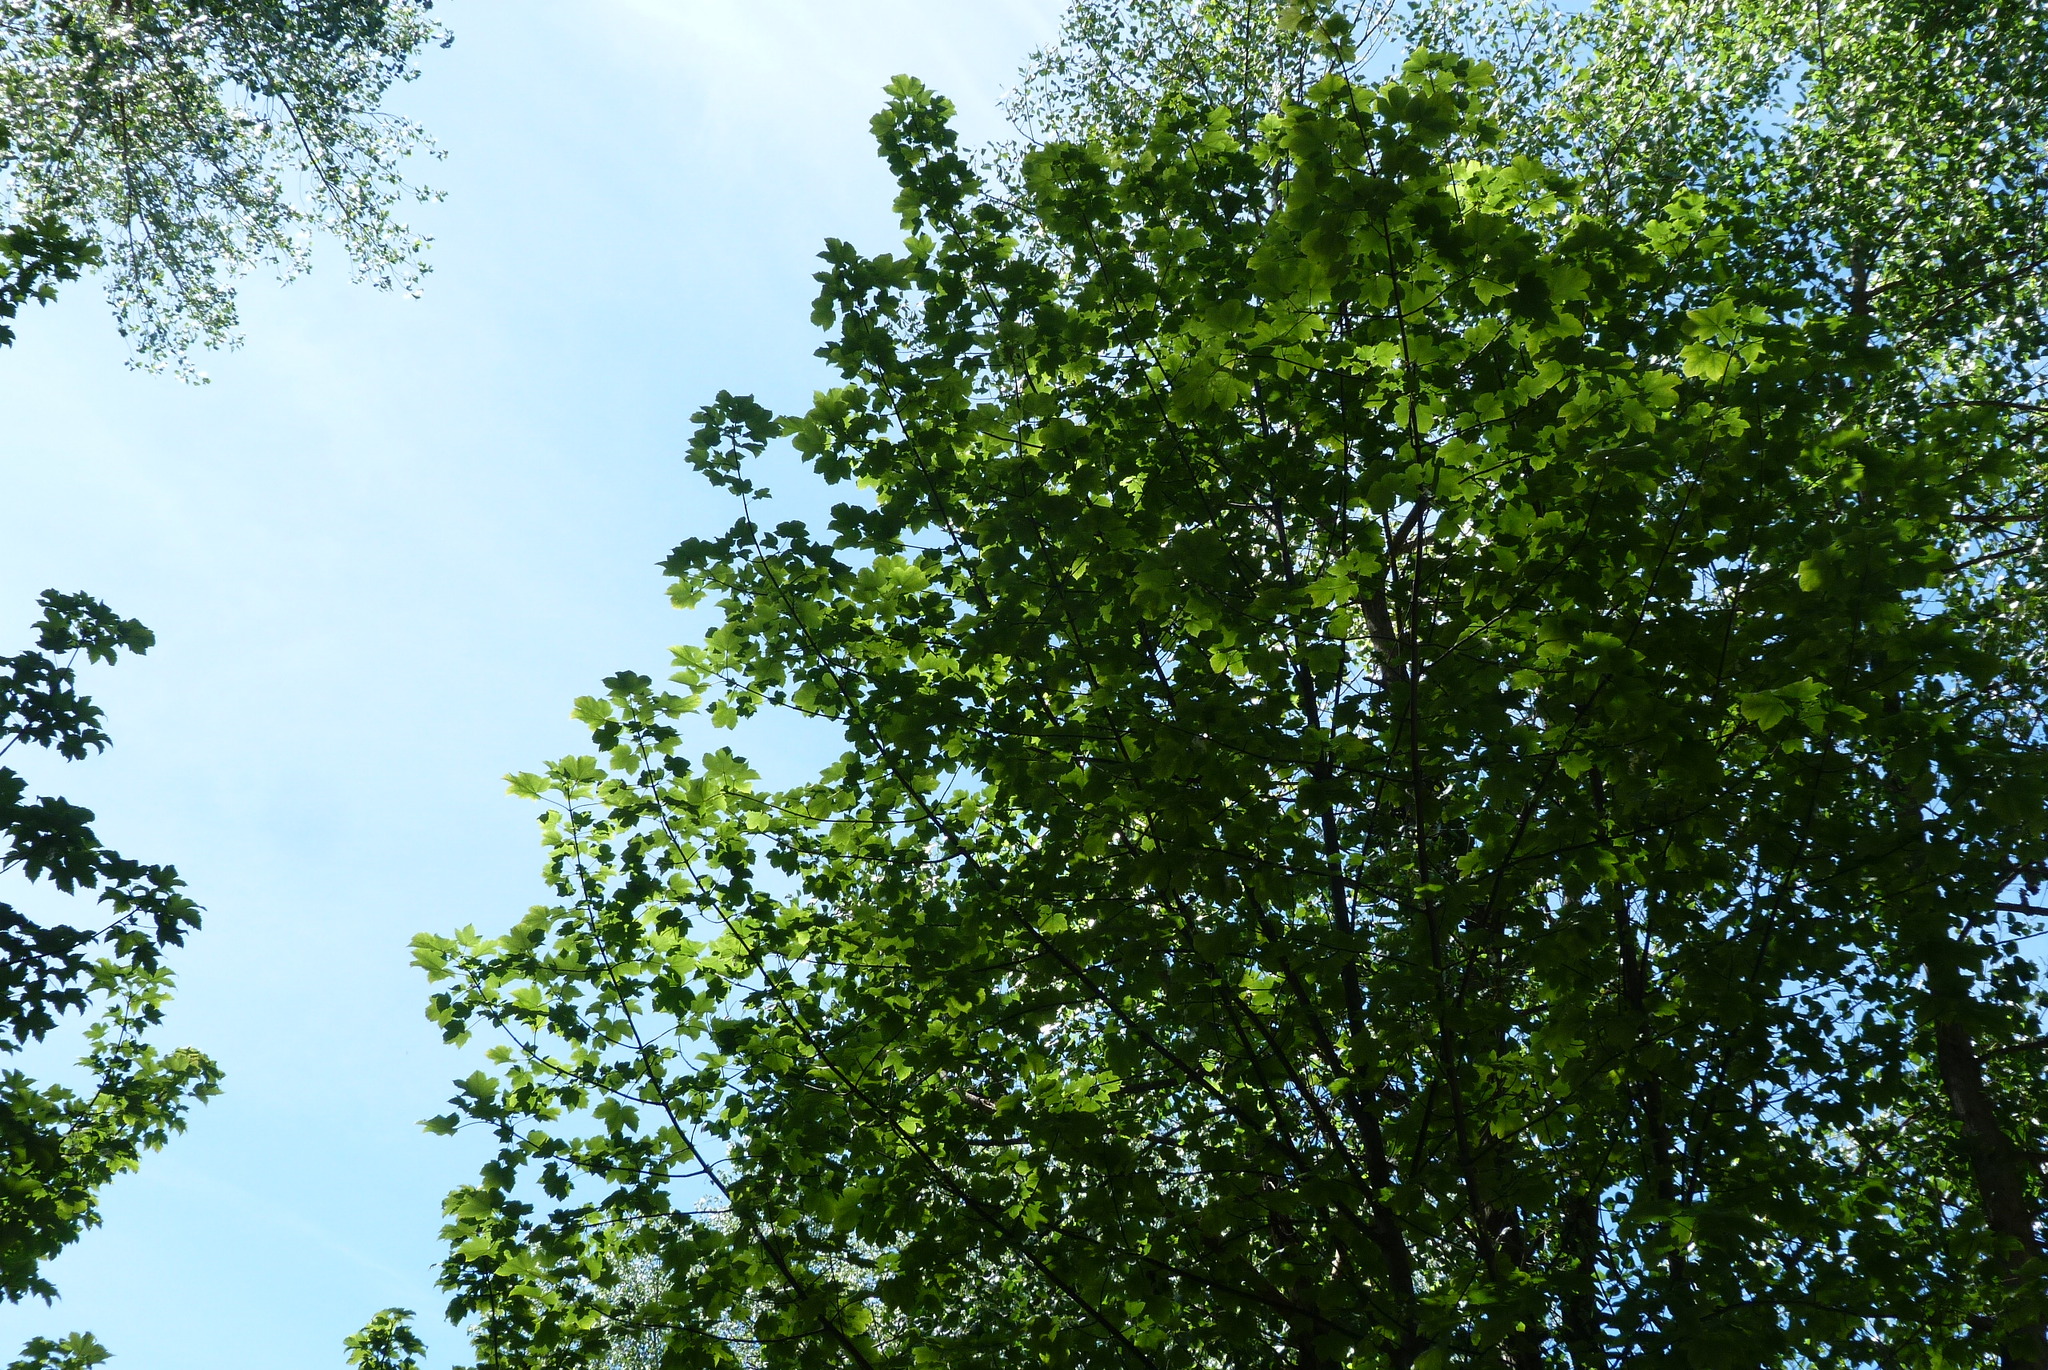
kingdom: Plantae
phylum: Tracheophyta
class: Magnoliopsida
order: Sapindales
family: Sapindaceae
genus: Acer
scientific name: Acer pseudoplatanus
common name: Sycamore
